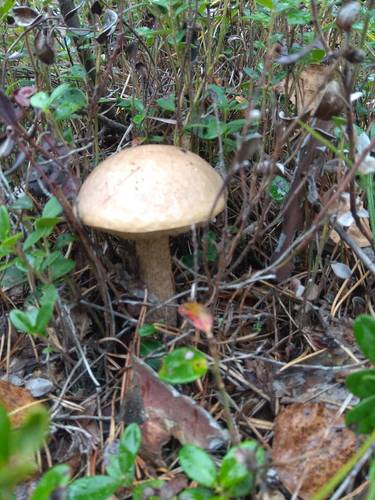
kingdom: Fungi
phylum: Basidiomycota
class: Agaricomycetes
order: Boletales
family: Boletaceae
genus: Leccinum
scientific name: Leccinum
